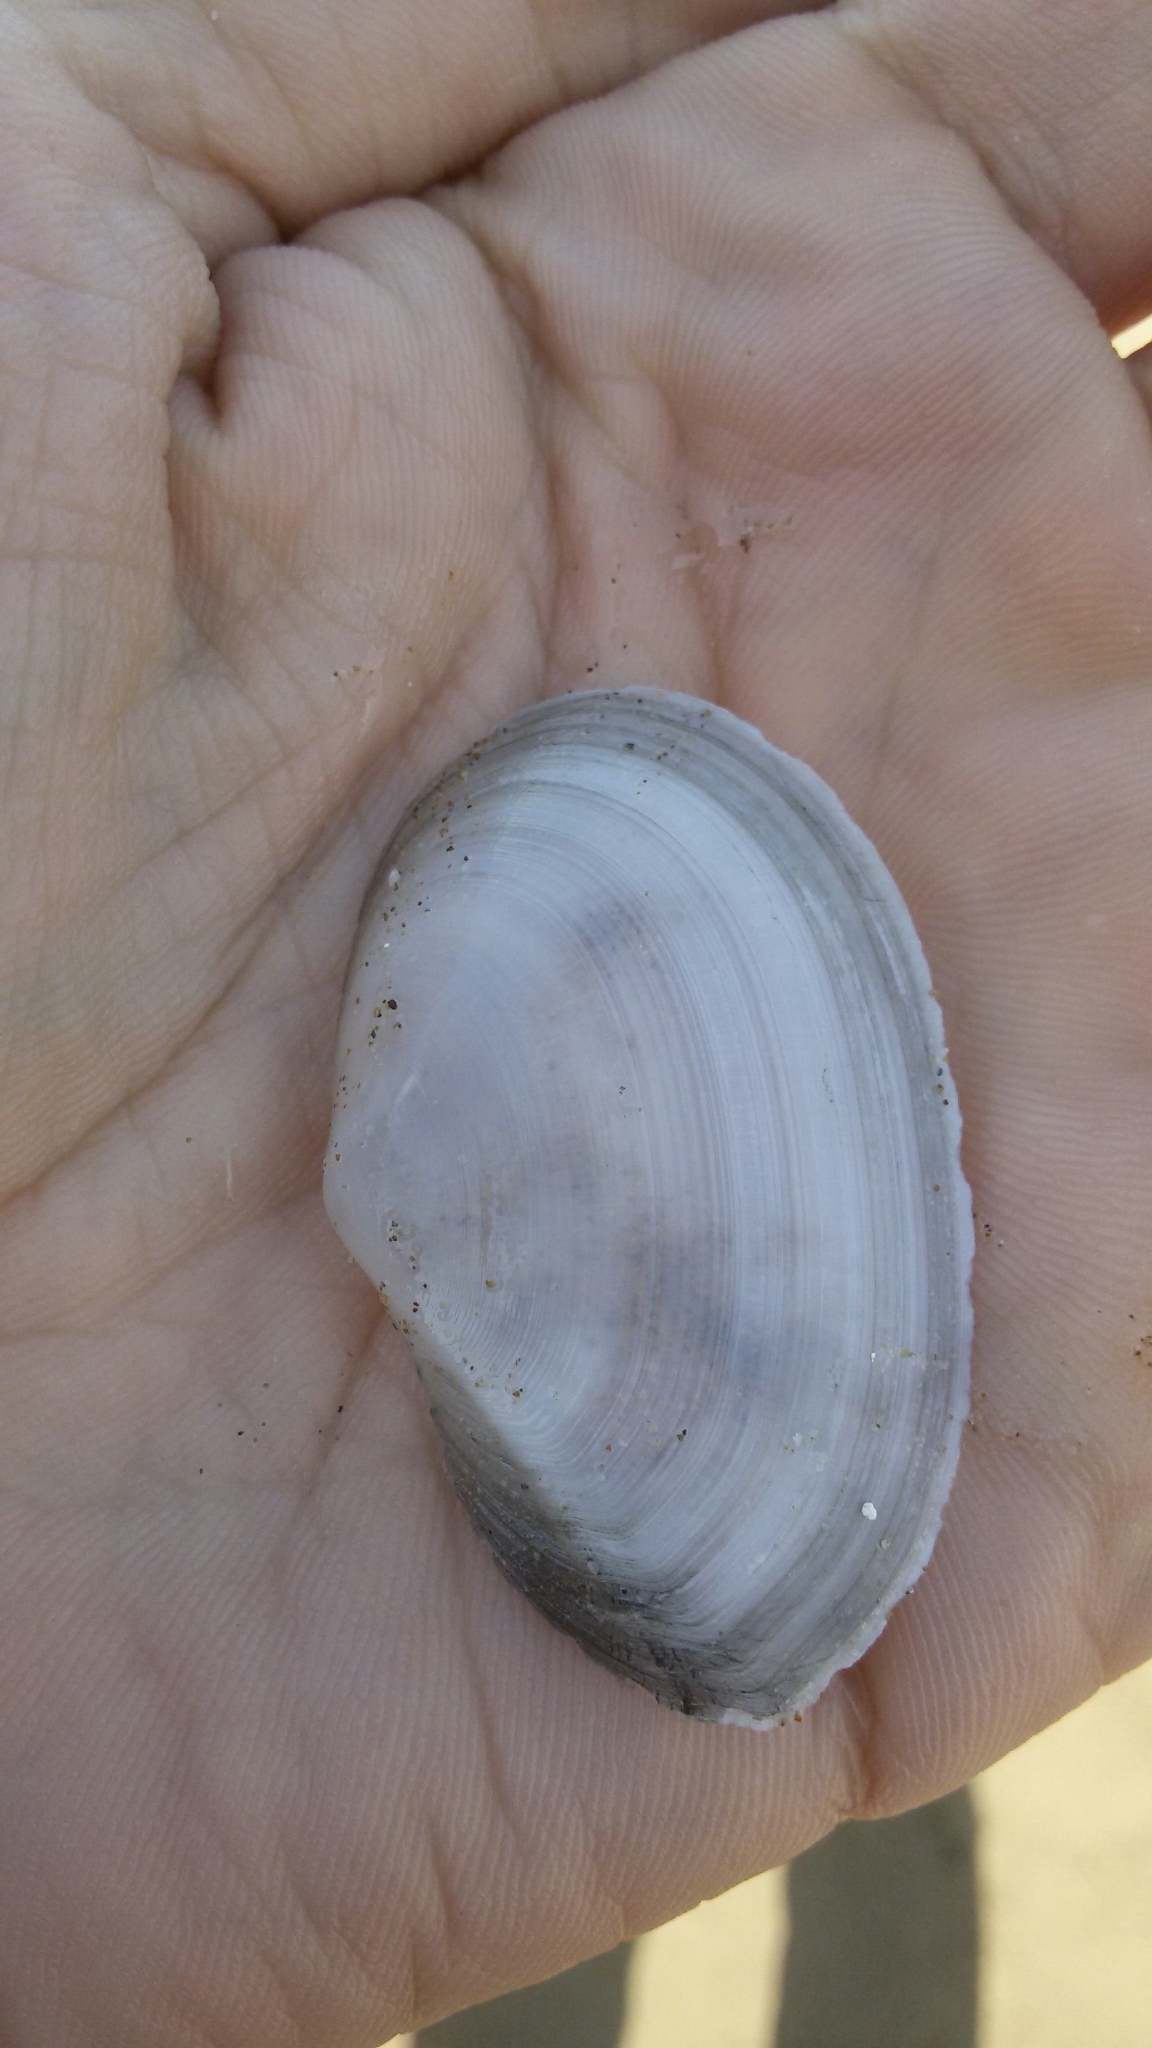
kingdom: Animalia
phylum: Mollusca
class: Bivalvia
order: Cardiida
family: Tellinidae
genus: Peronaea
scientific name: Peronaea planata
